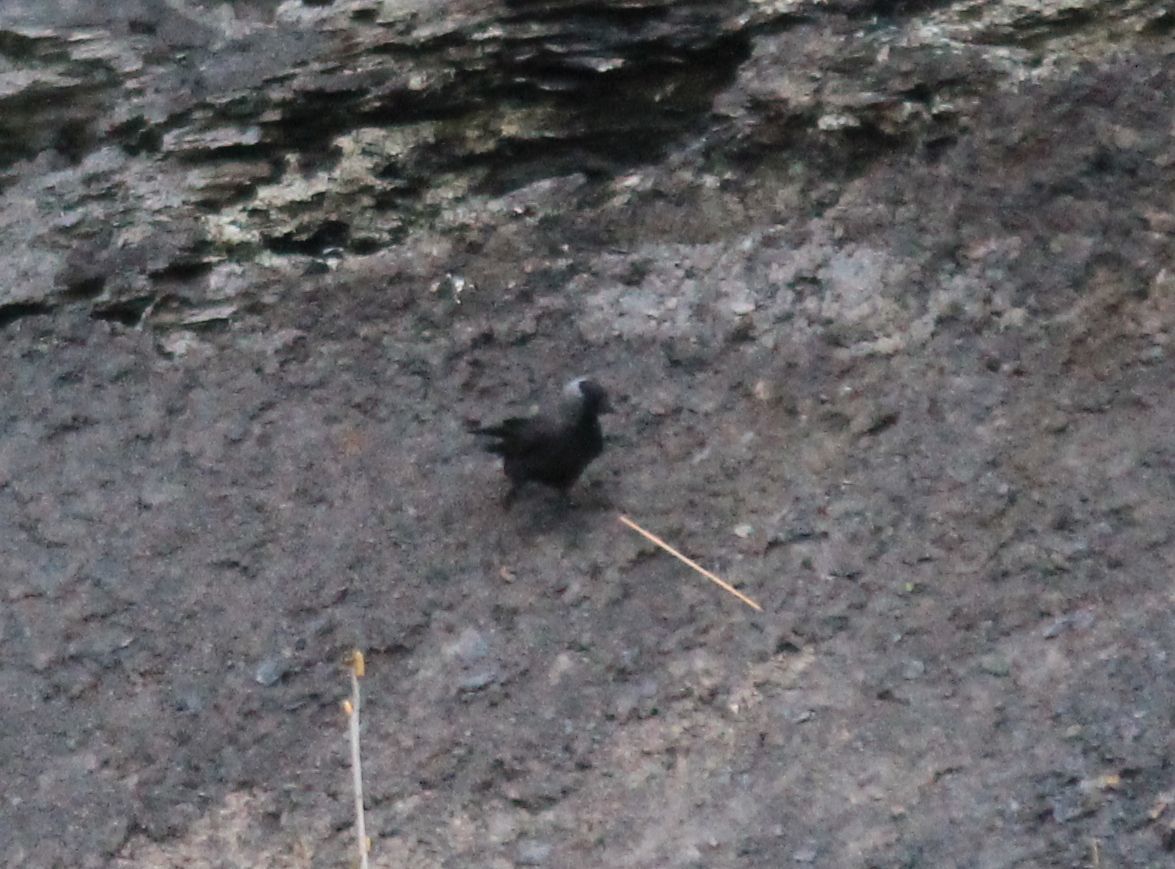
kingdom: Animalia
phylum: Chordata
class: Aves
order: Passeriformes
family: Corvidae
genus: Coloeus
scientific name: Coloeus monedula
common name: Western jackdaw
